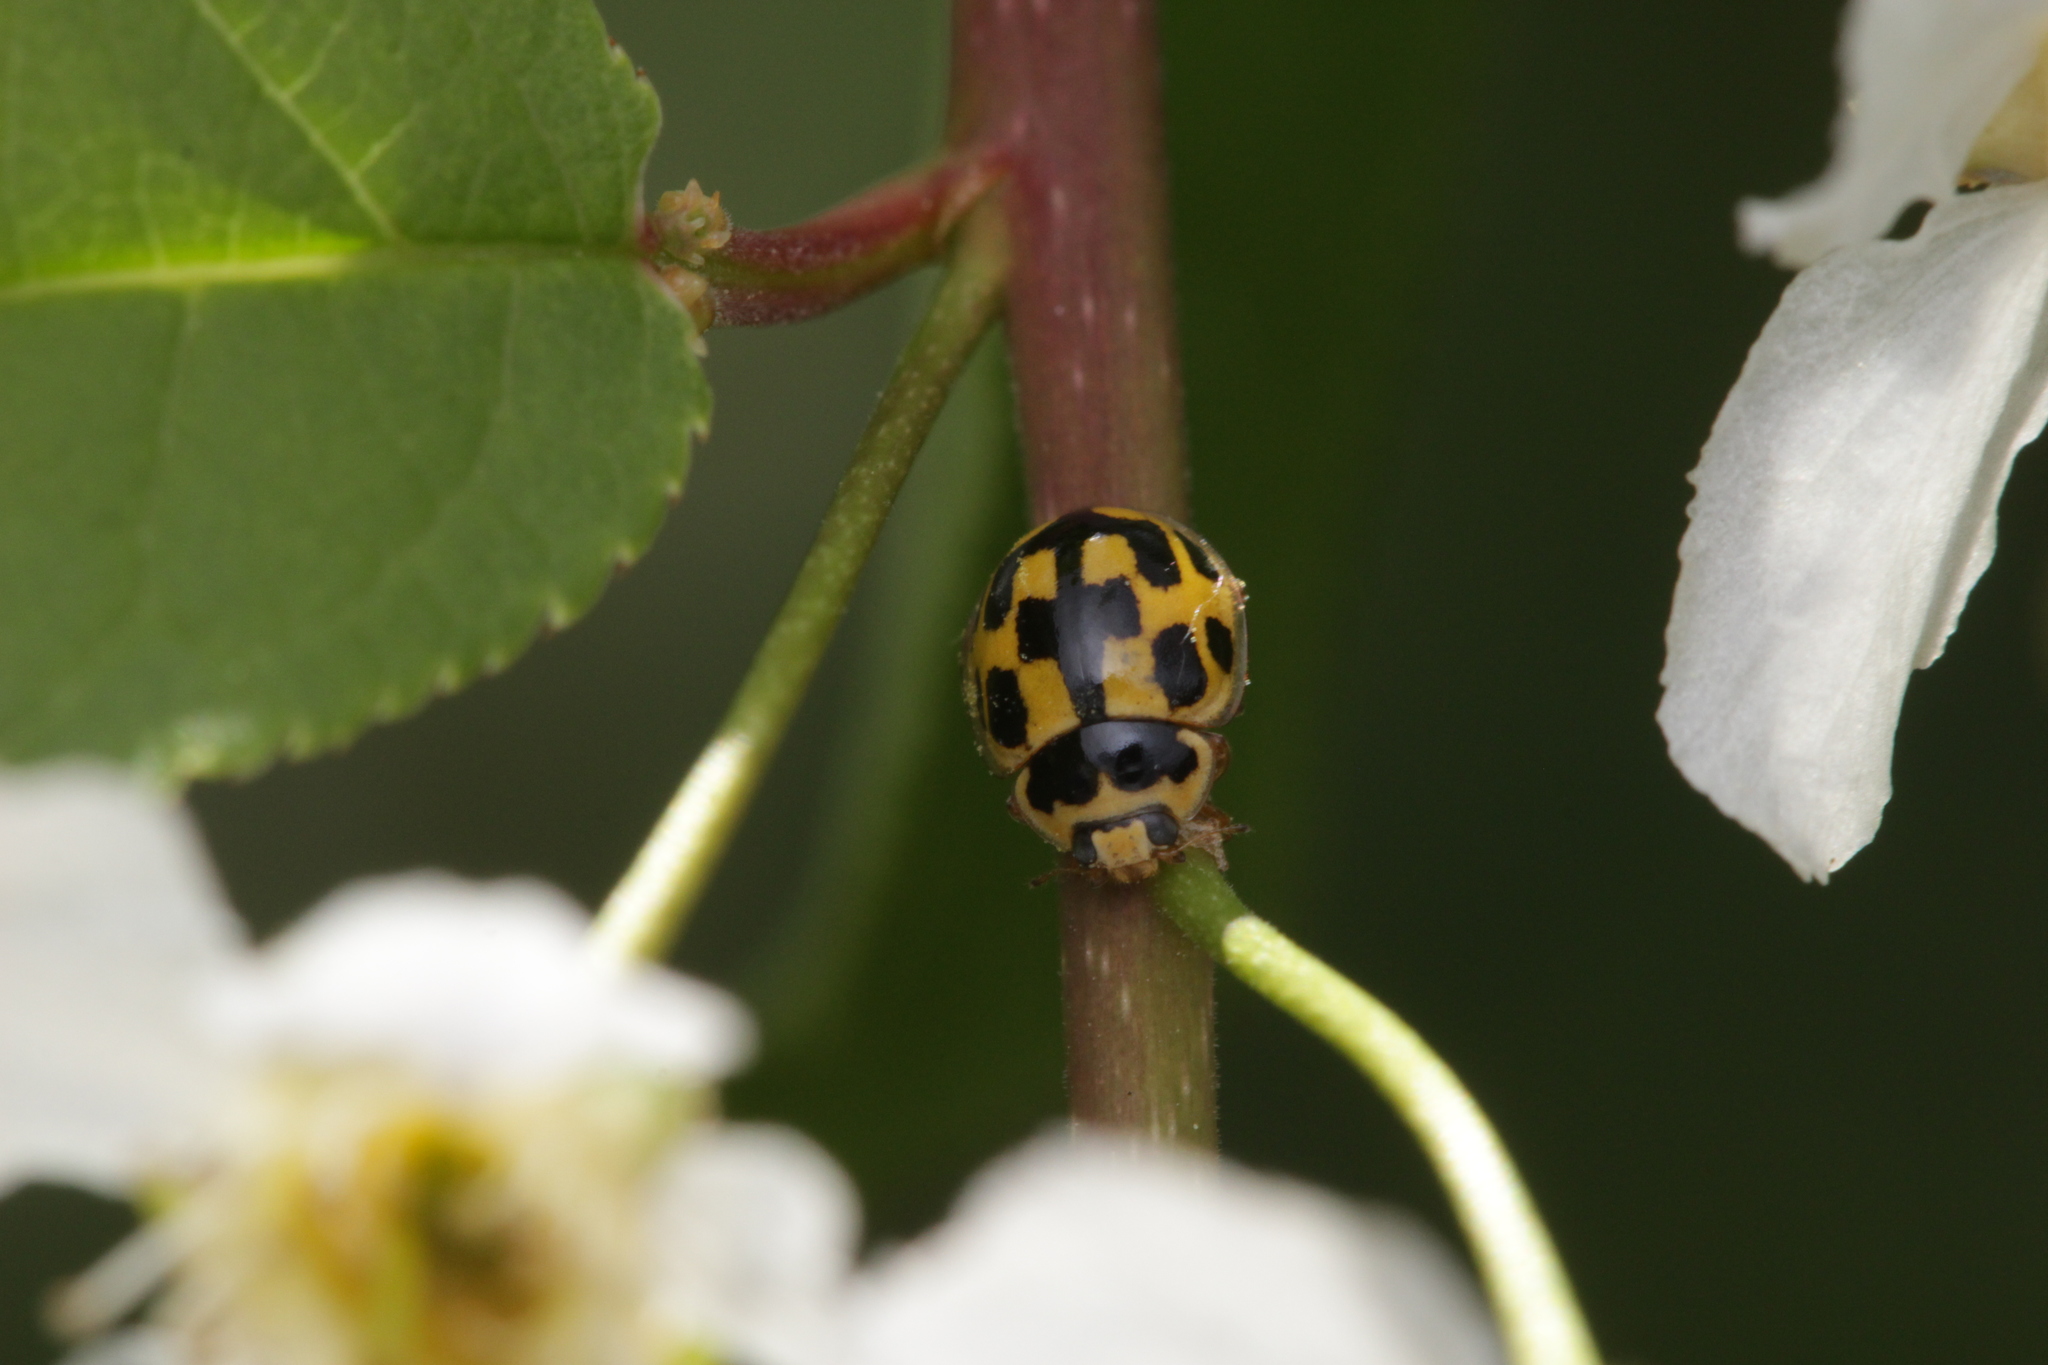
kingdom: Animalia
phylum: Arthropoda
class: Insecta
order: Coleoptera
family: Coccinellidae
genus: Propylaea
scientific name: Propylaea quatuordecimpunctata
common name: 14-spotted ladybird beetle
